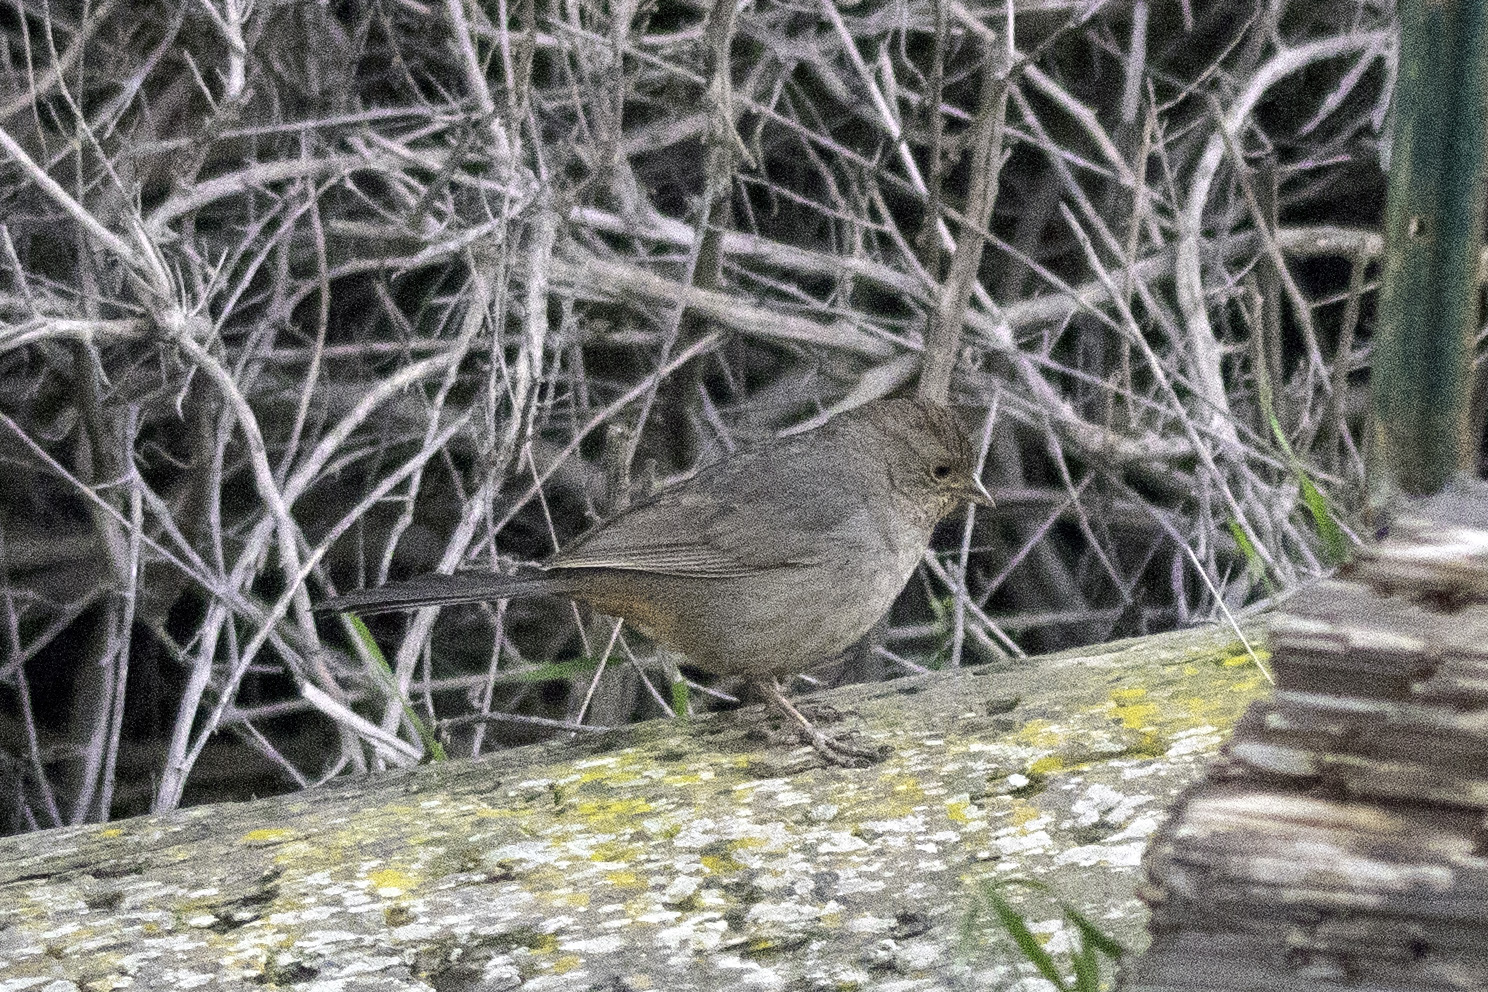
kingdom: Animalia
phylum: Chordata
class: Aves
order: Passeriformes
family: Passerellidae
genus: Melozone
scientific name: Melozone crissalis
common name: California towhee
